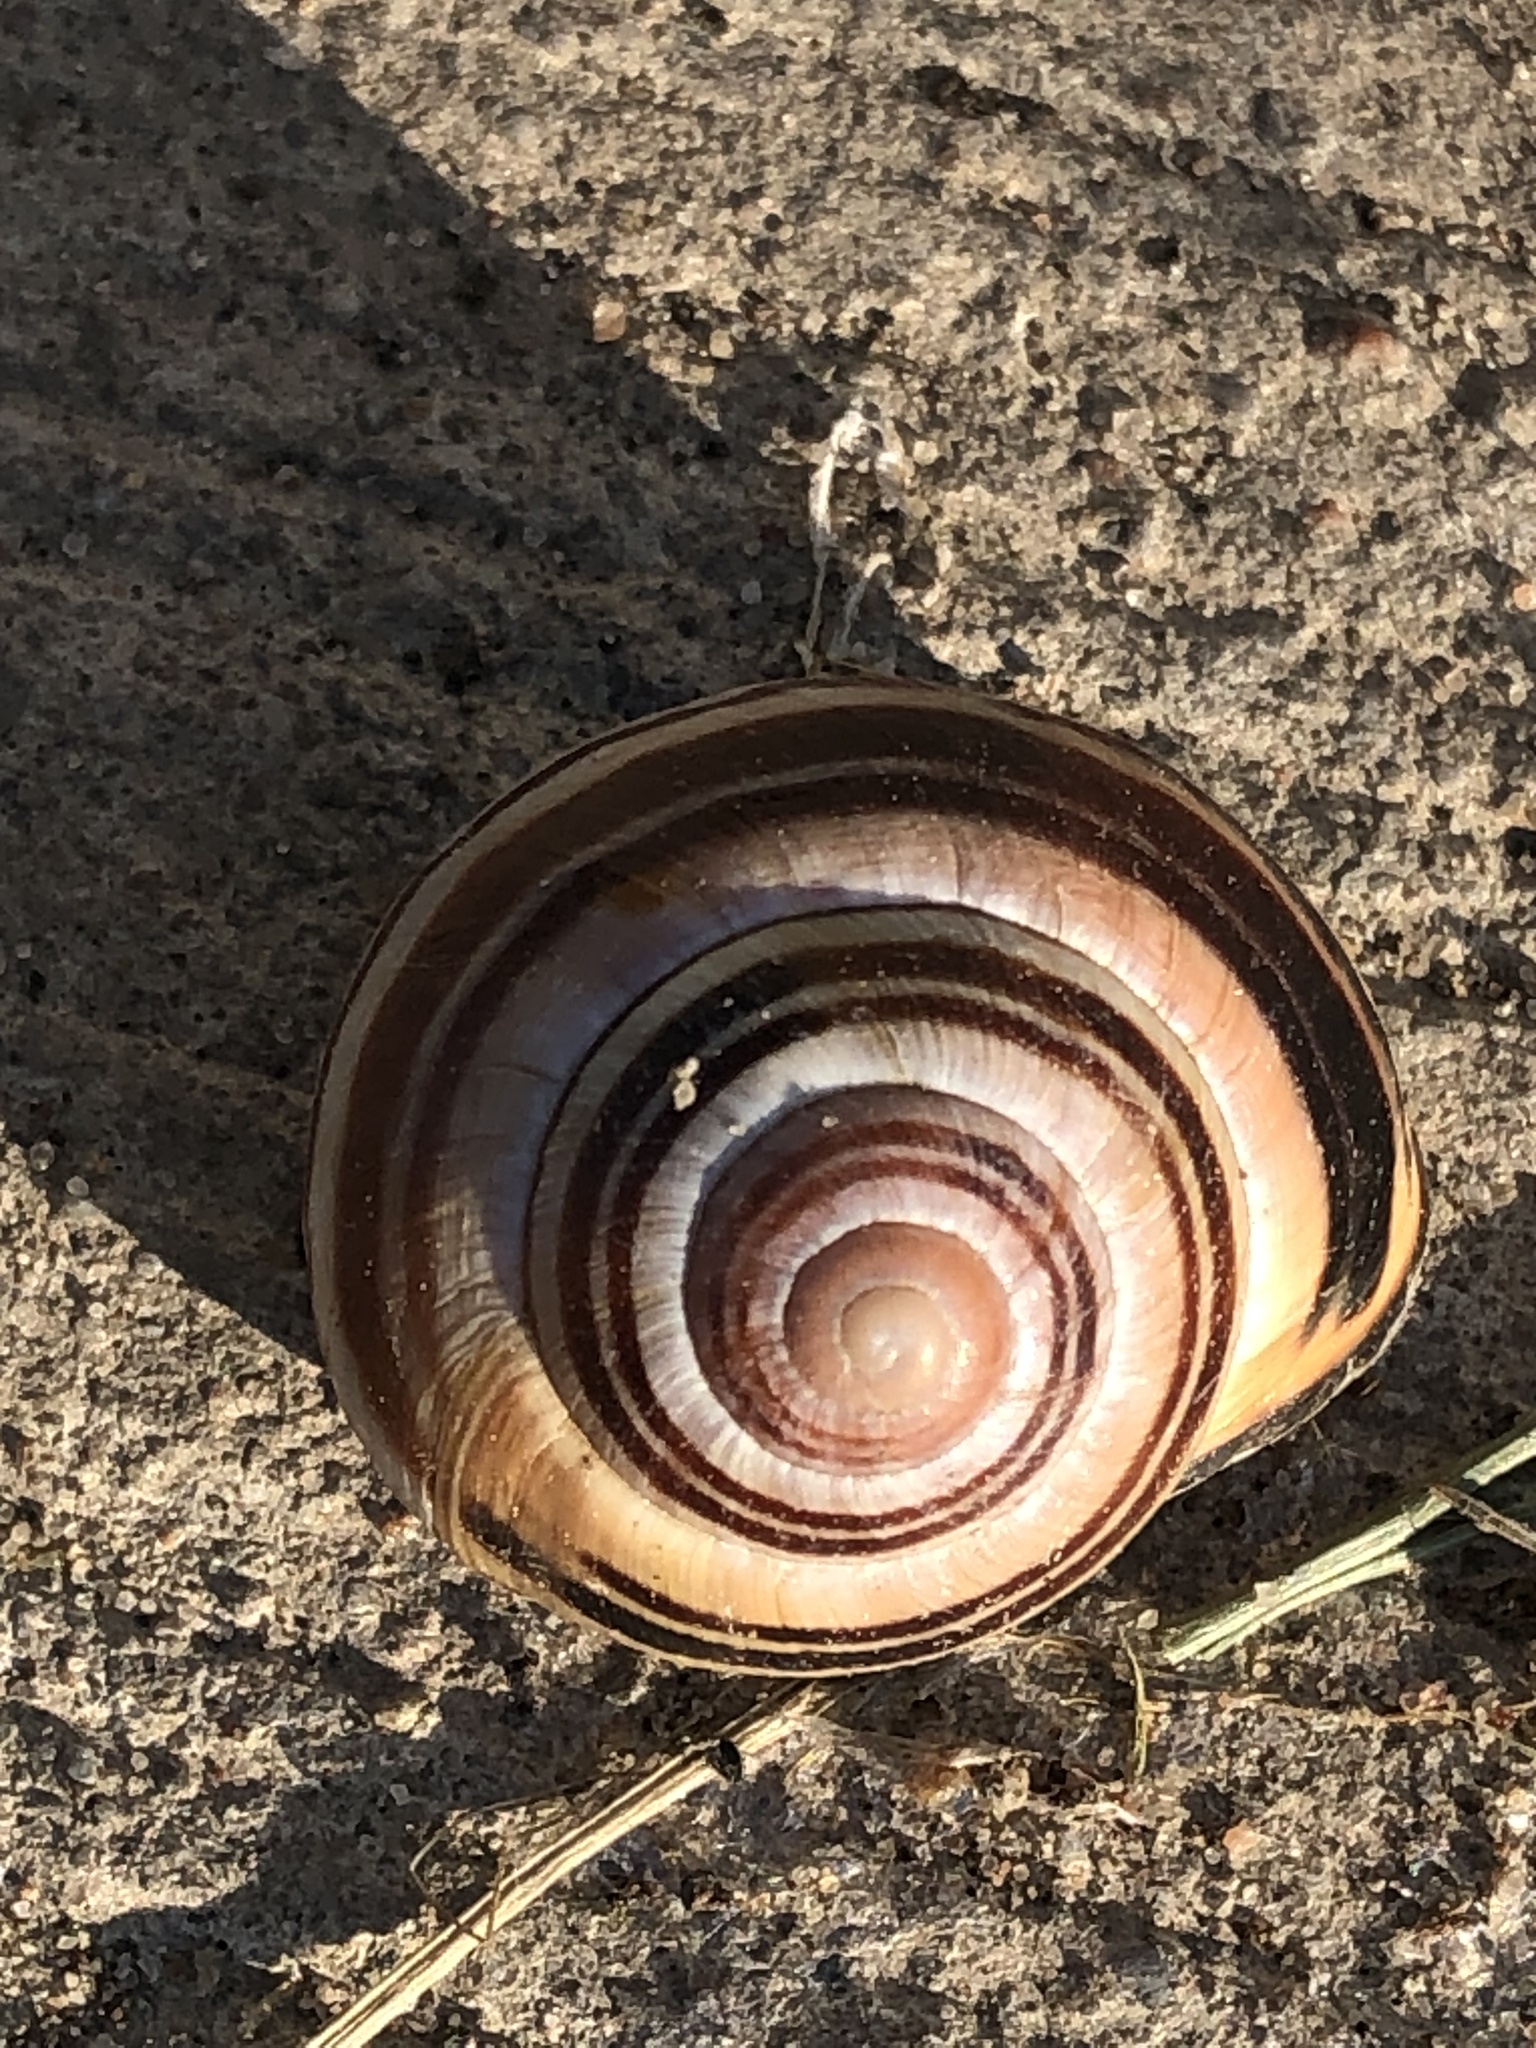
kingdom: Animalia
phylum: Mollusca
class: Gastropoda
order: Stylommatophora
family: Helicidae
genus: Cepaea
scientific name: Cepaea nemoralis
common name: Grovesnail
